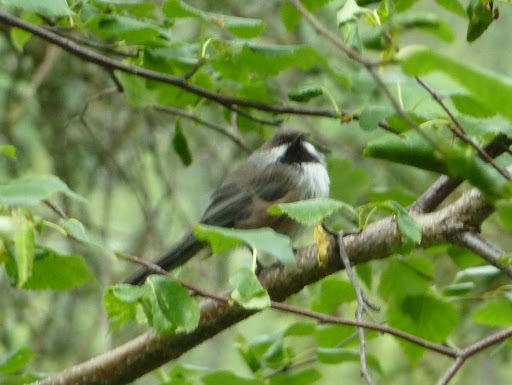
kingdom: Animalia
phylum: Chordata
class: Aves
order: Passeriformes
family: Paridae
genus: Poecile
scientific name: Poecile hudsonicus
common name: Boreal chickadee
